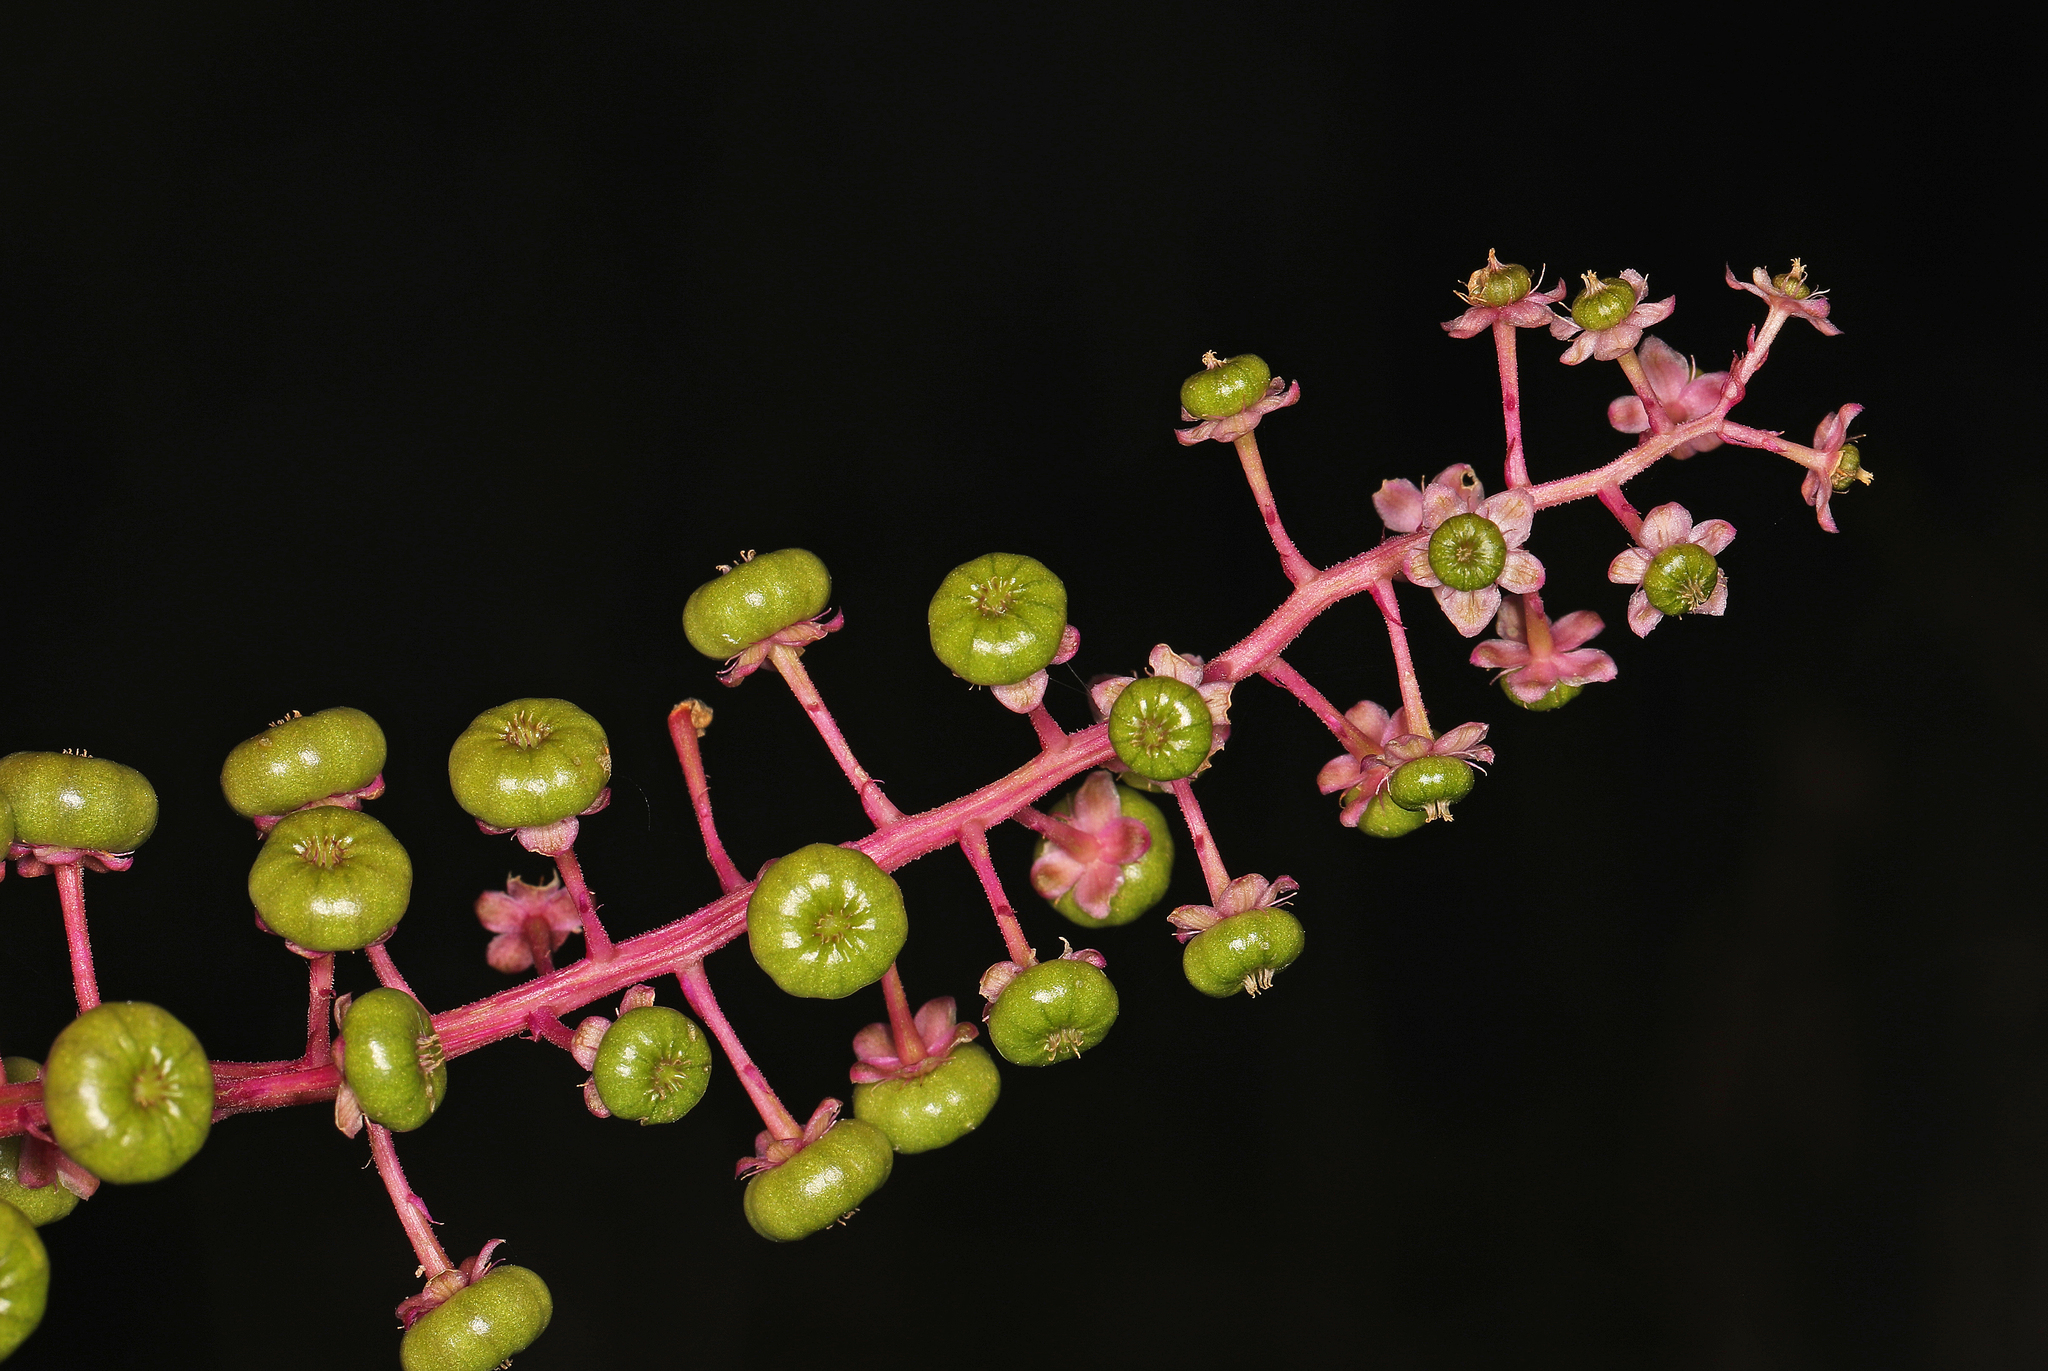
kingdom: Plantae
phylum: Tracheophyta
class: Magnoliopsida
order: Caryophyllales
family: Phytolaccaceae
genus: Phytolacca
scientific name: Phytolacca americana
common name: American pokeweed
